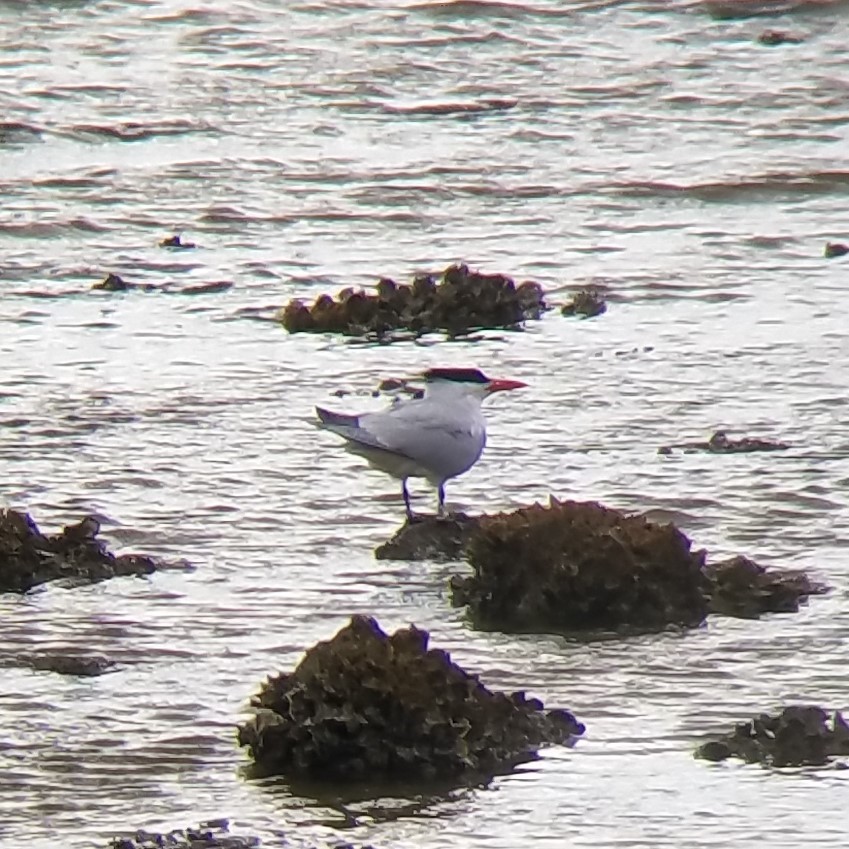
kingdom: Animalia
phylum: Chordata
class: Aves
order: Charadriiformes
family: Laridae
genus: Thalasseus
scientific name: Thalasseus maximus
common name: Royal tern
